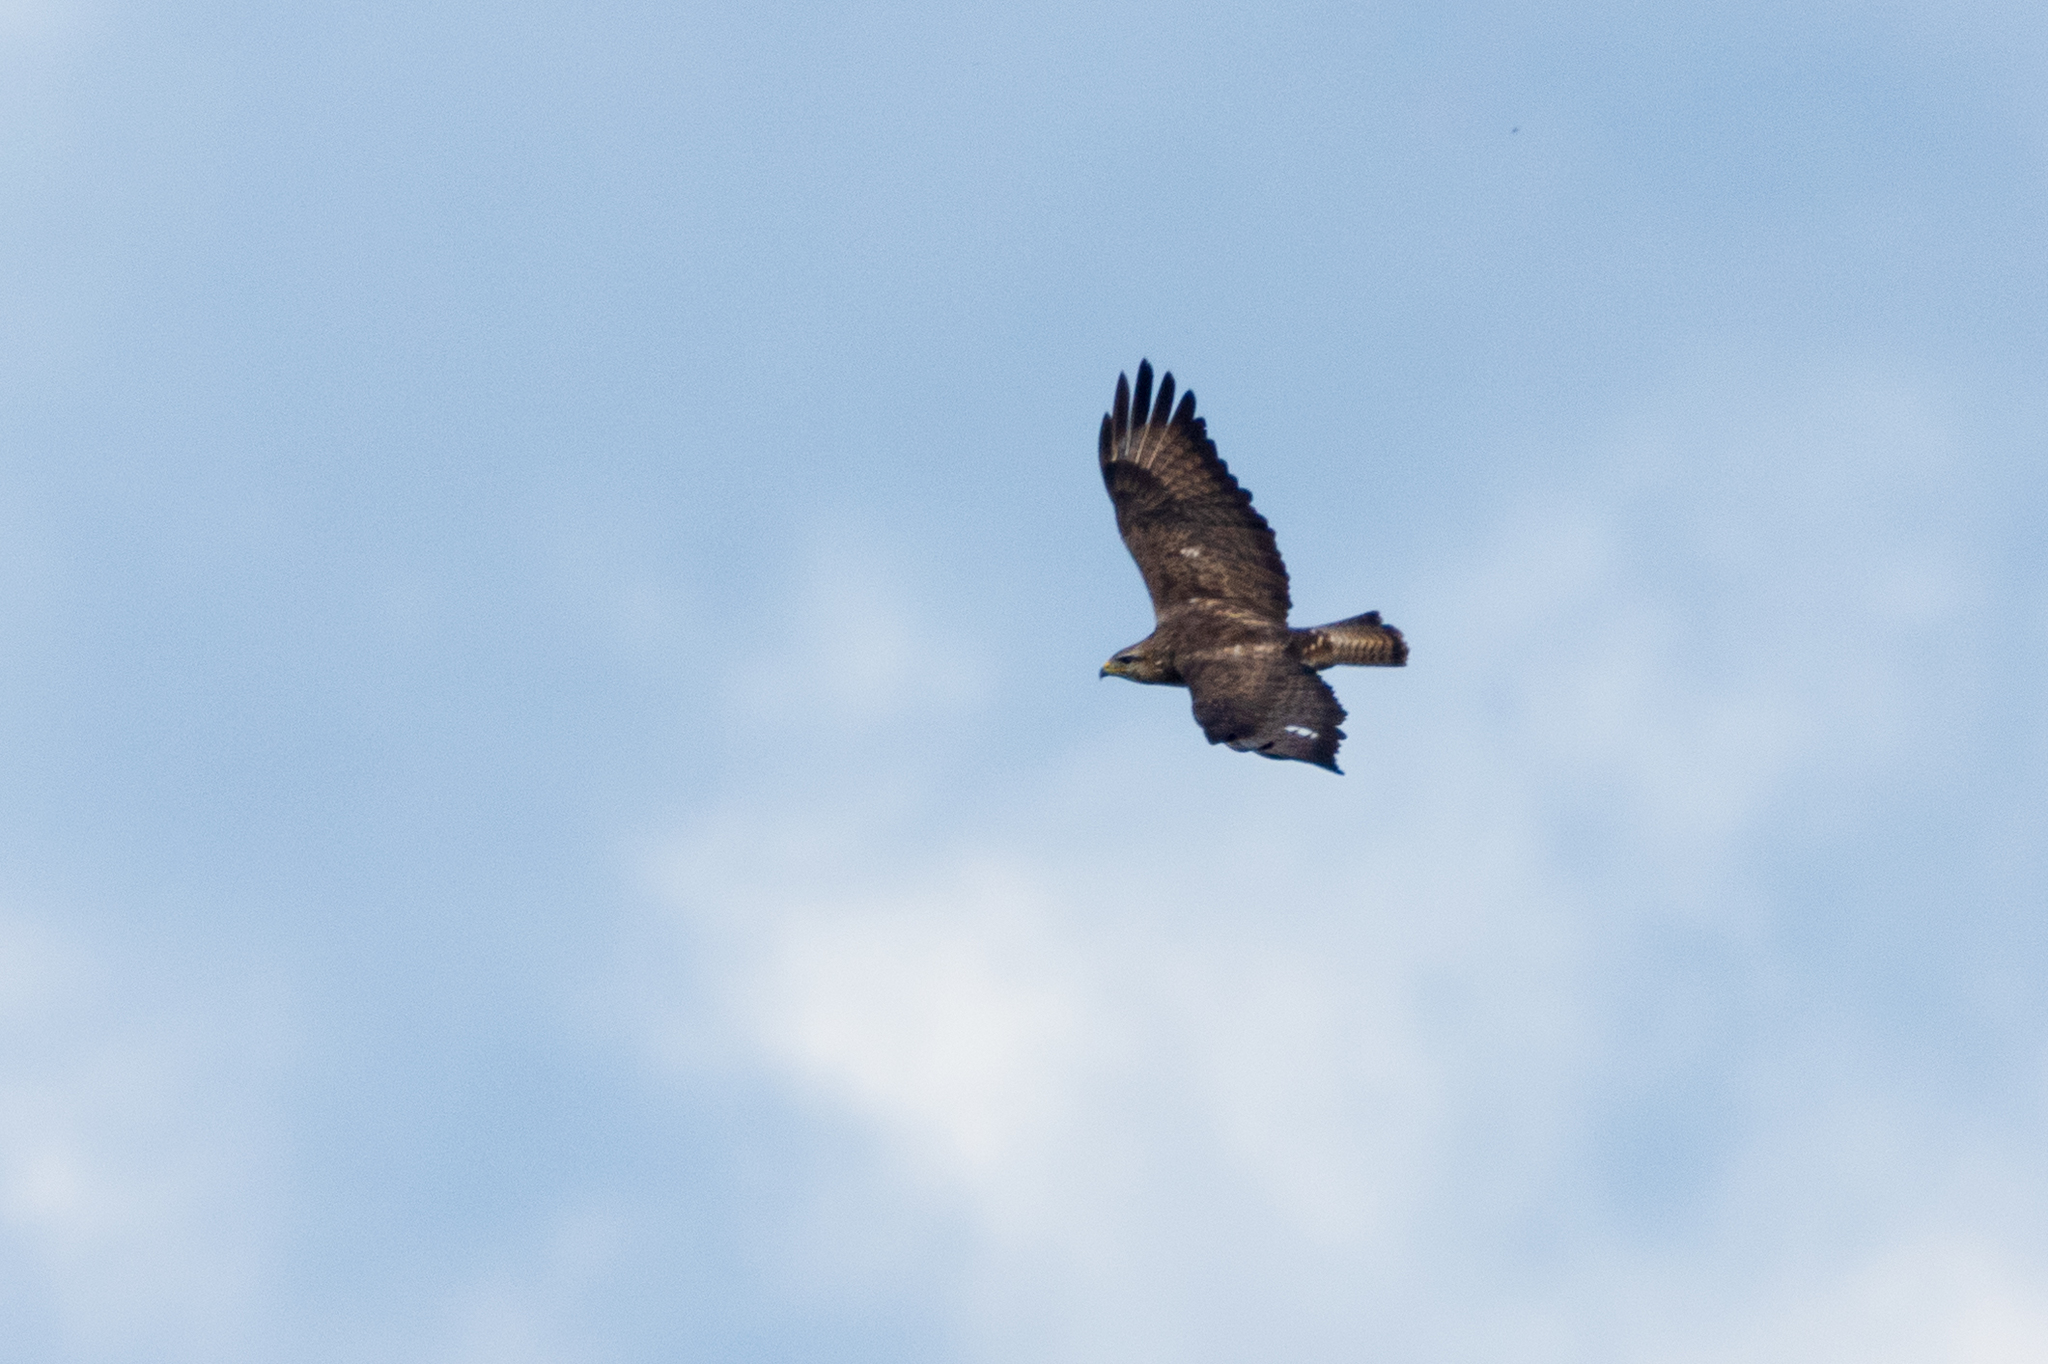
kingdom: Animalia
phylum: Chordata
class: Aves
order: Accipitriformes
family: Accipitridae
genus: Buteo
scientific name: Buteo buteo
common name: Common buzzard
